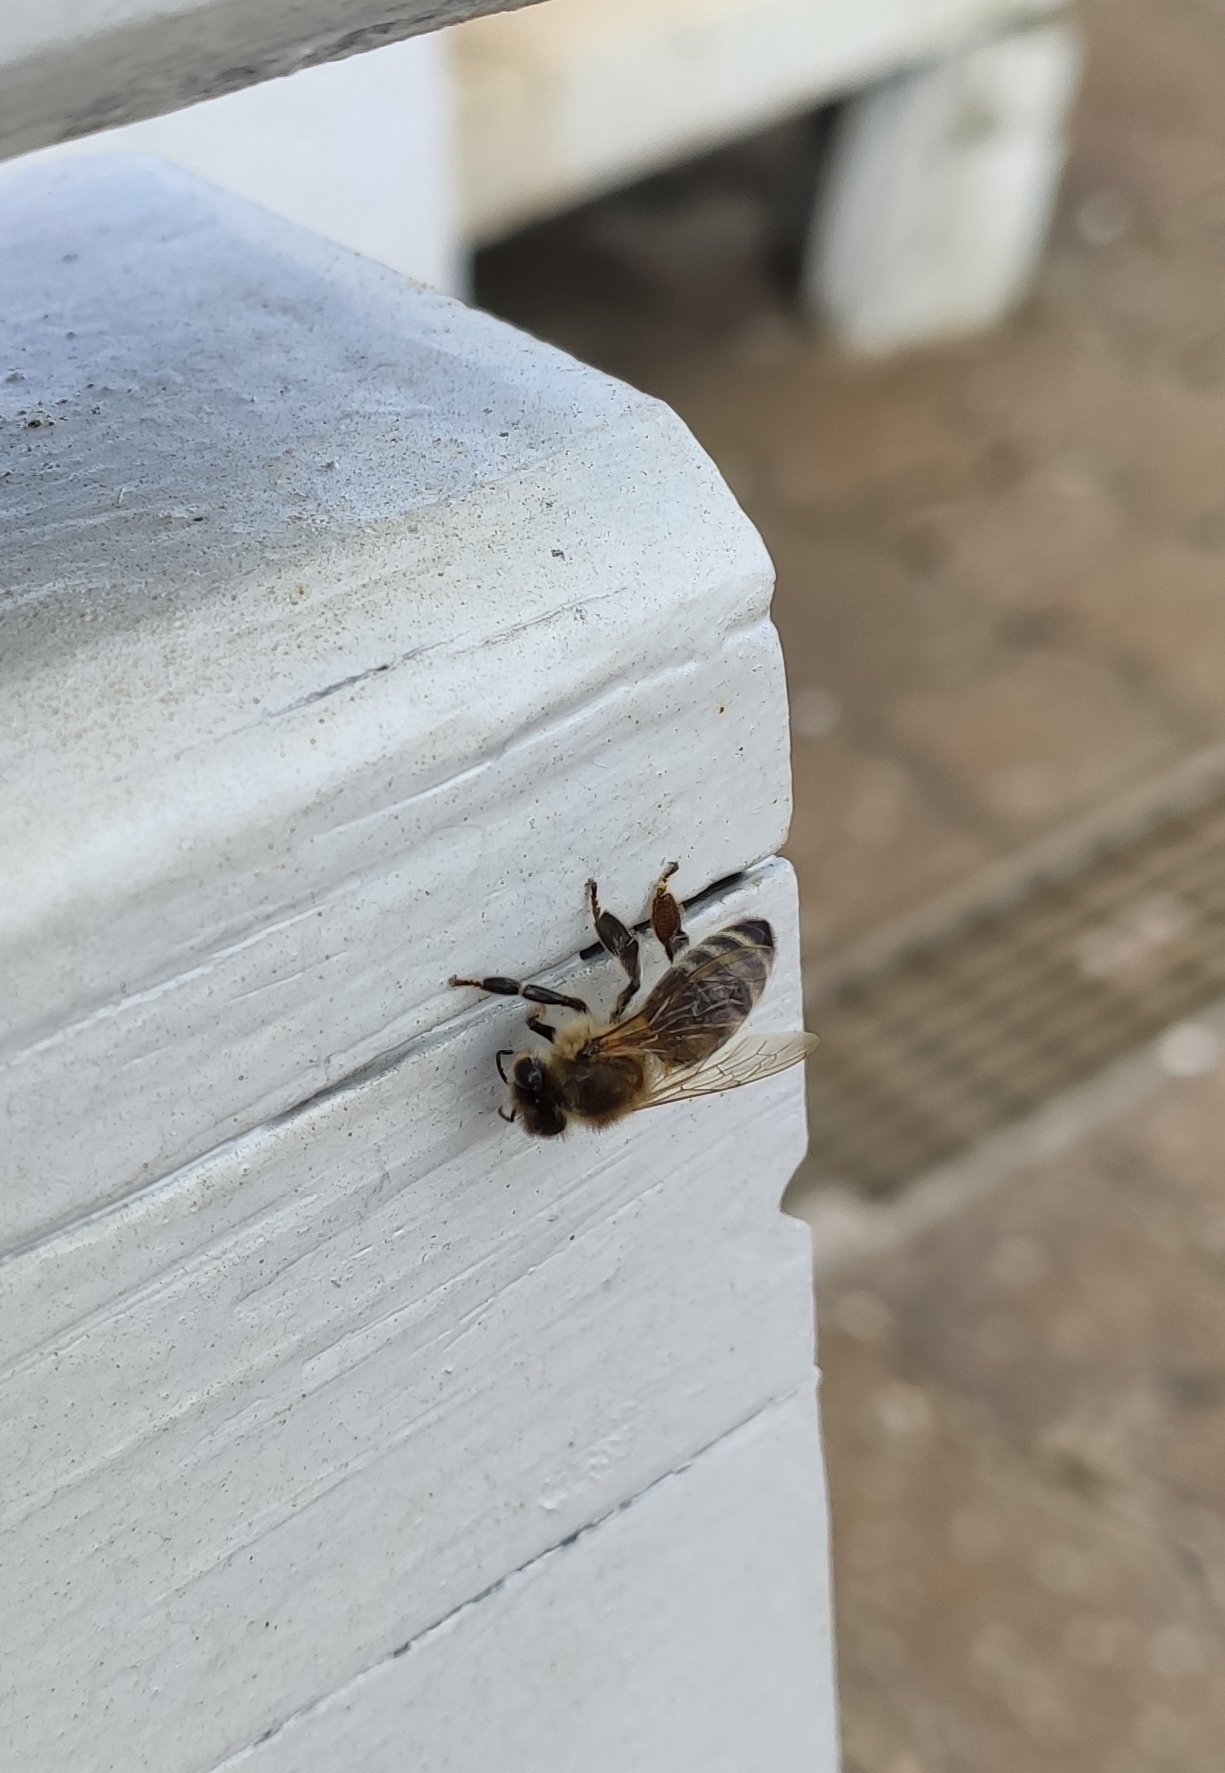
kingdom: Animalia
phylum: Arthropoda
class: Insecta
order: Hymenoptera
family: Apidae
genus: Apis
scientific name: Apis mellifera
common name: Honey bee
